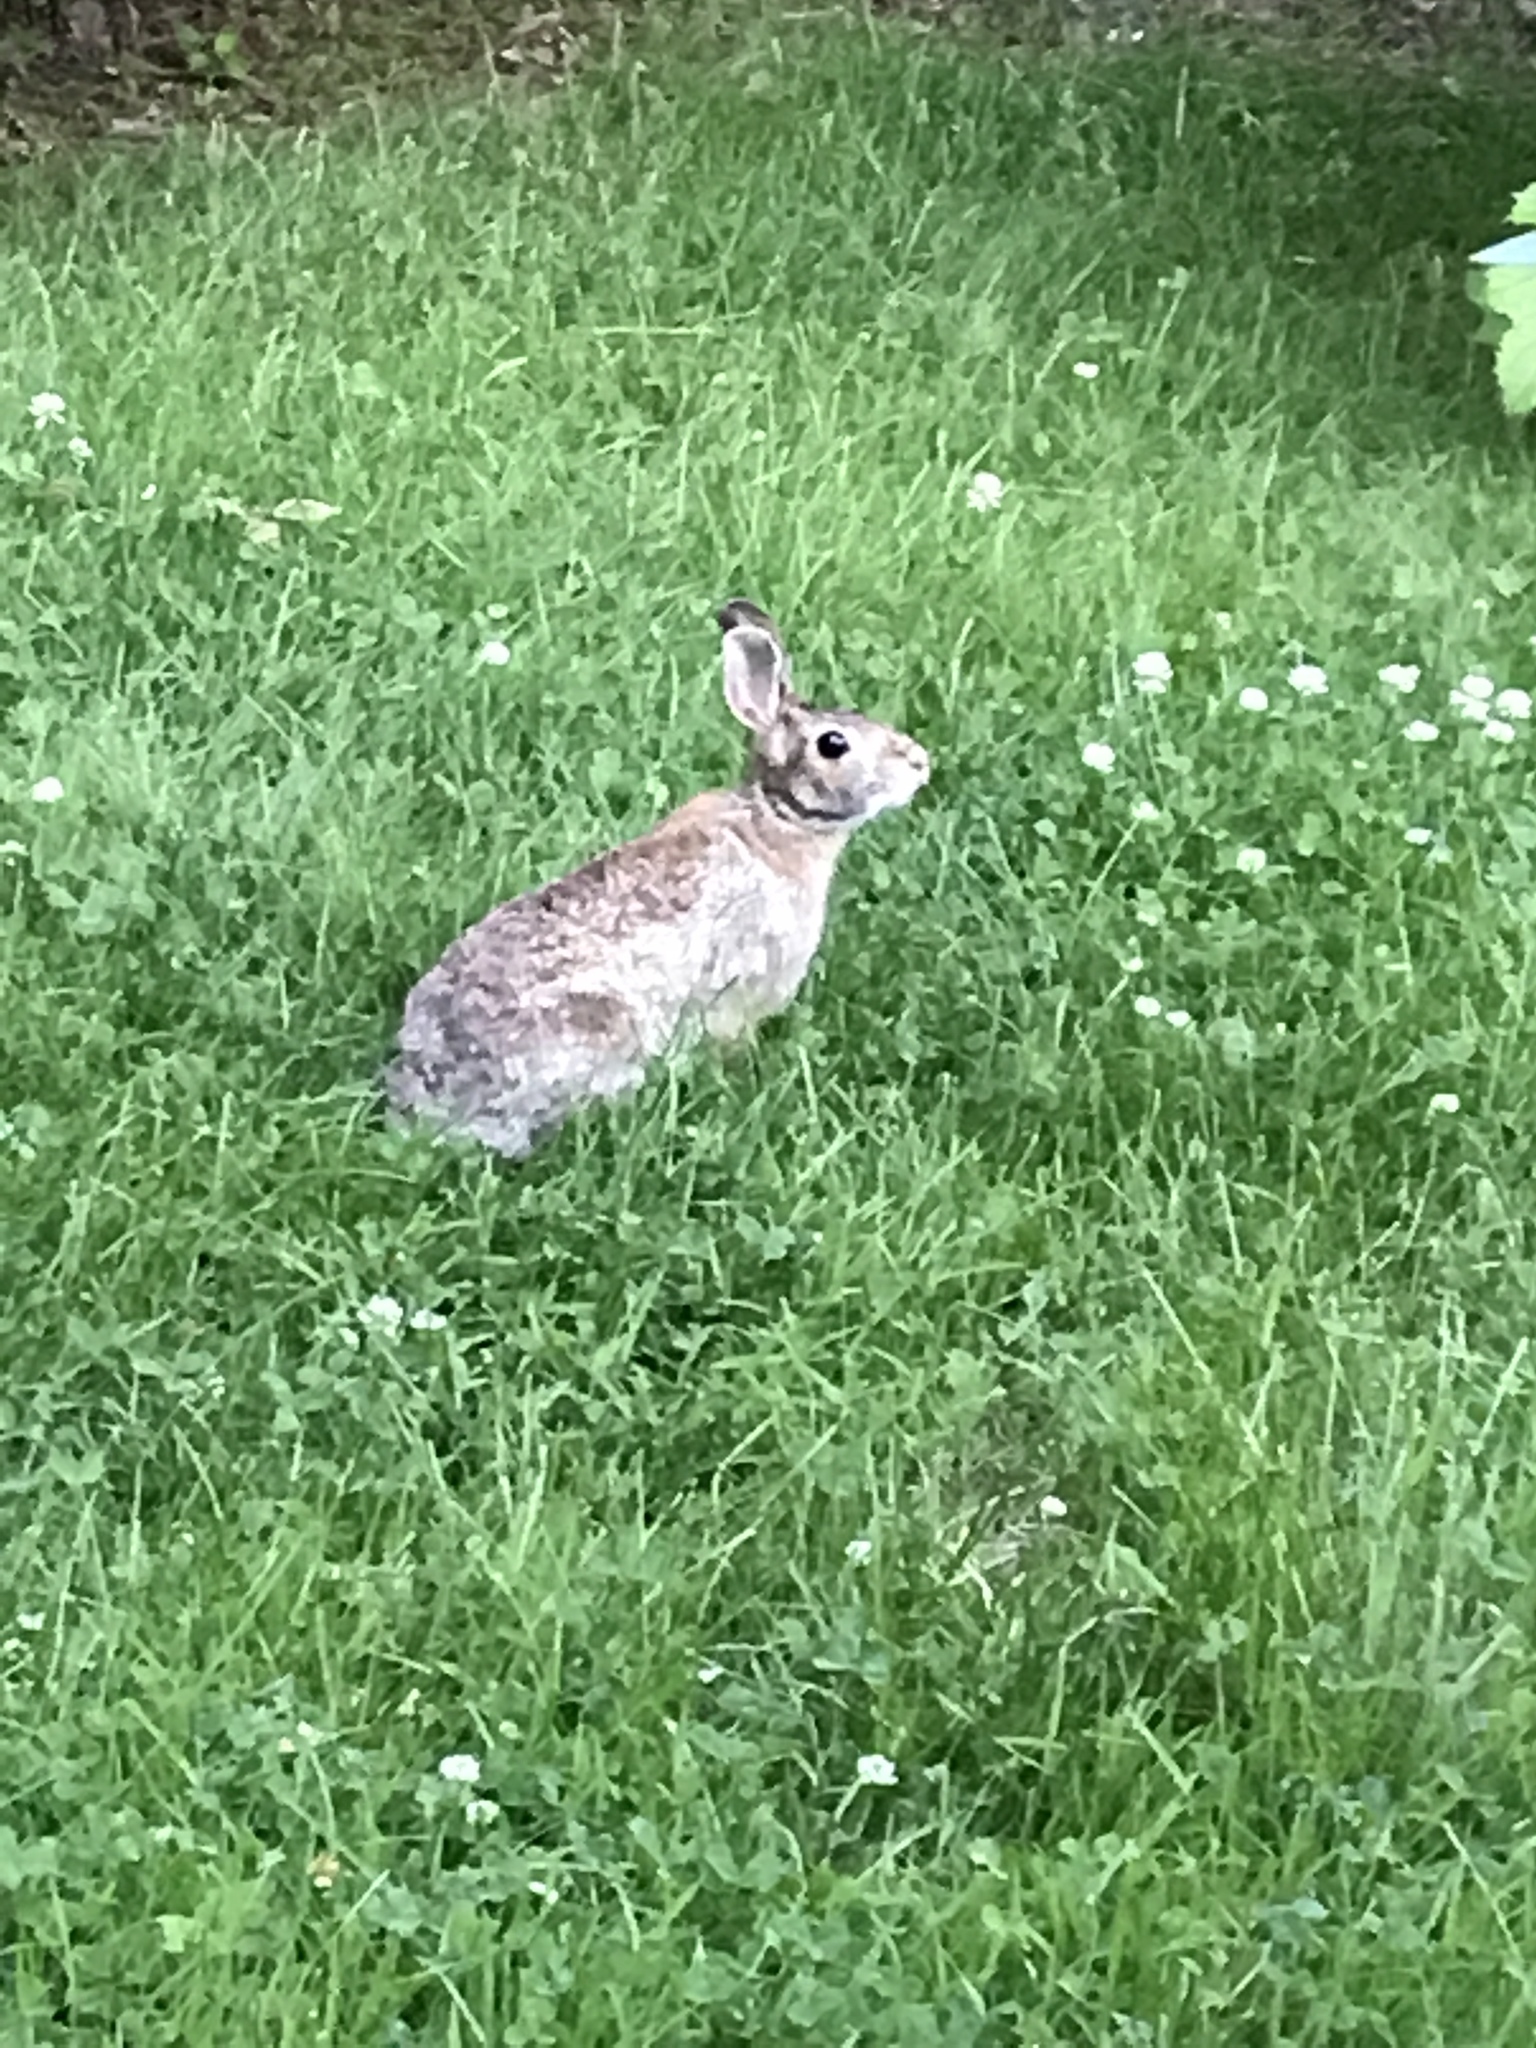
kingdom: Animalia
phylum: Chordata
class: Mammalia
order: Lagomorpha
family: Leporidae
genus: Sylvilagus
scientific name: Sylvilagus floridanus
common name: Eastern cottontail
